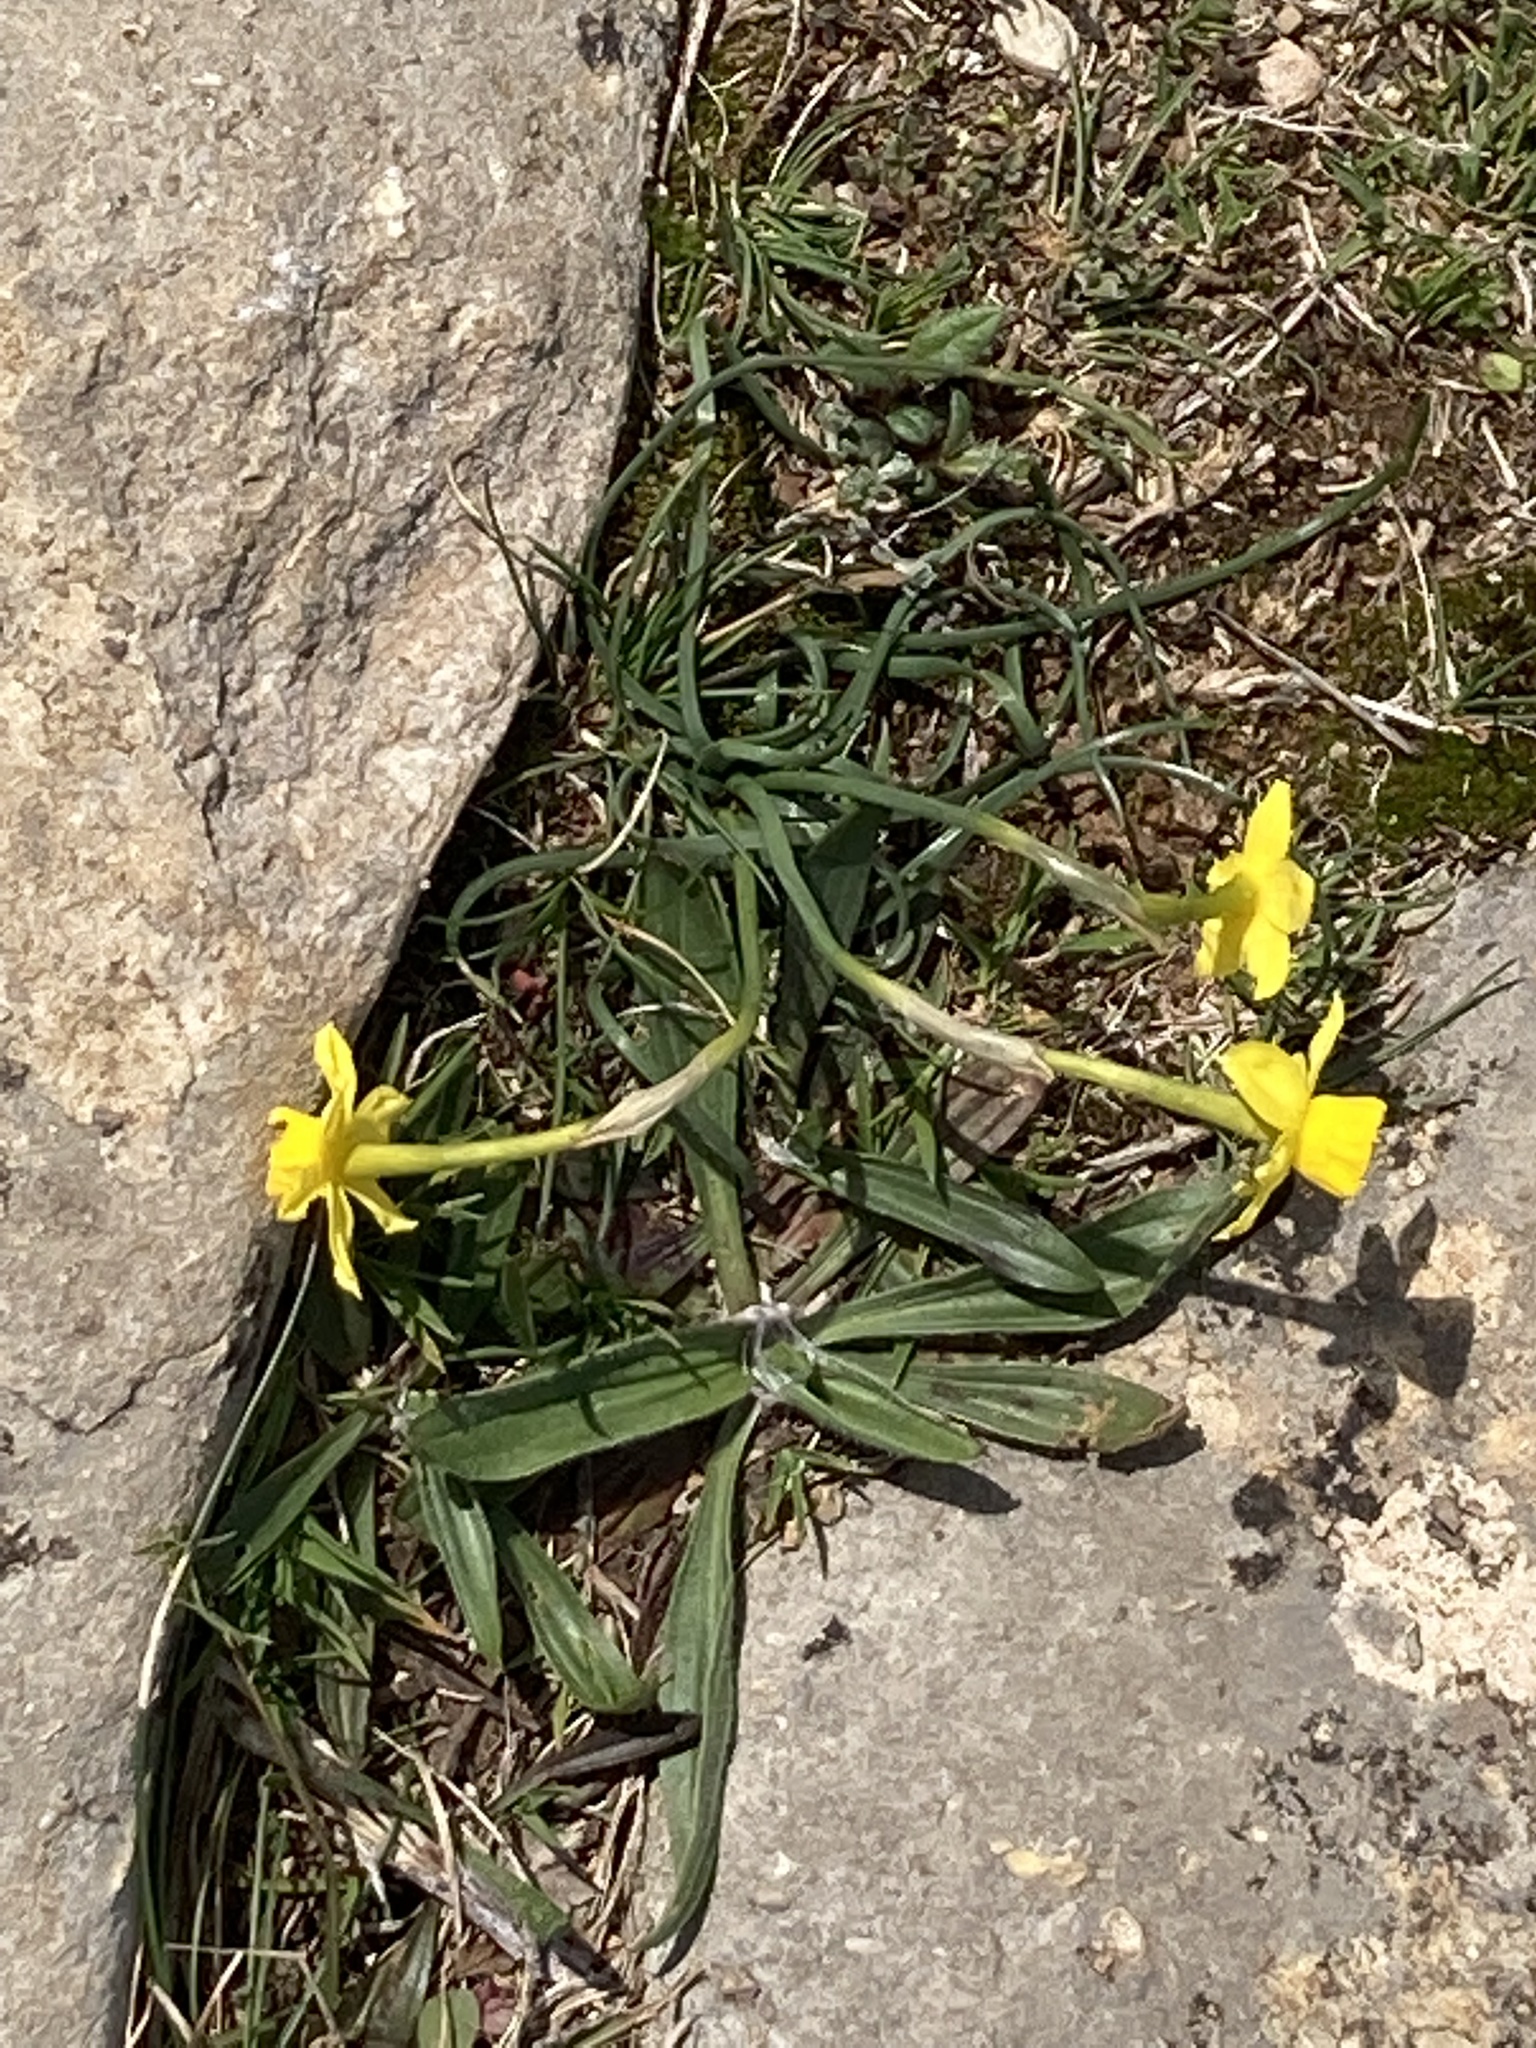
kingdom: Plantae
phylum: Tracheophyta
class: Liliopsida
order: Asparagales
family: Amaryllidaceae
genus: Narcissus
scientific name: Narcissus assoanus
